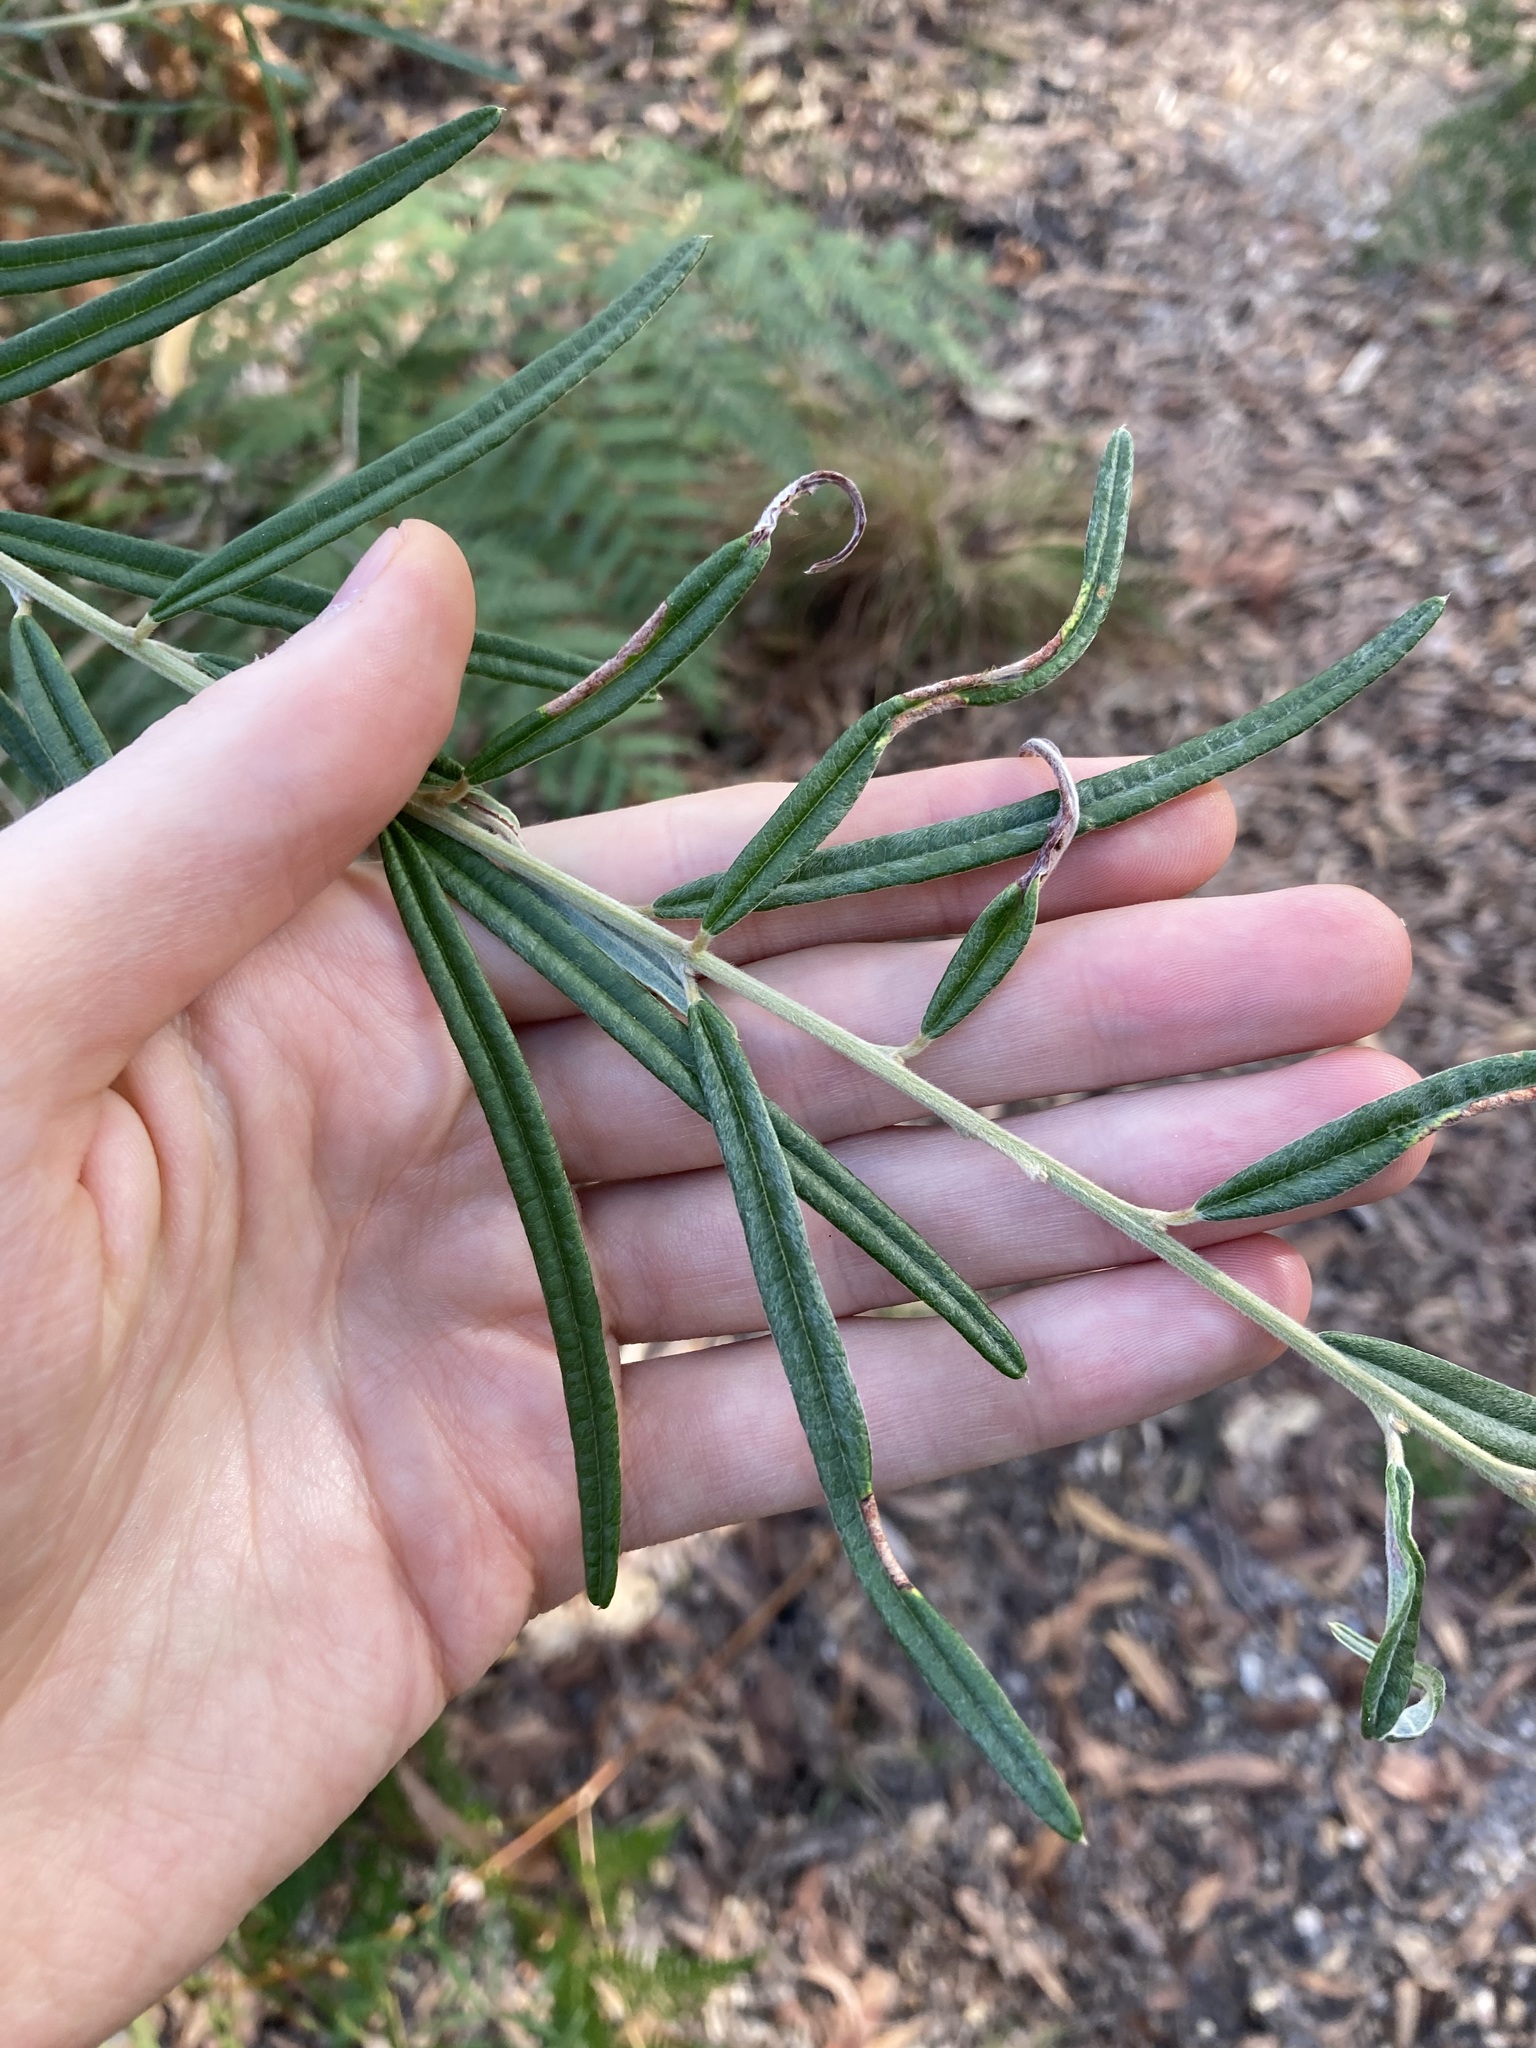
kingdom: Plantae
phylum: Tracheophyta
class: Magnoliopsida
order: Fabales
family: Fabaceae
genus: Oxylobium
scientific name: Oxylobium robustum
